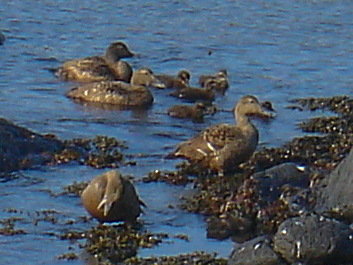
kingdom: Animalia
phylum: Chordata
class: Aves
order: Anseriformes
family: Anatidae
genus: Somateria
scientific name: Somateria mollissima
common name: Common eider
